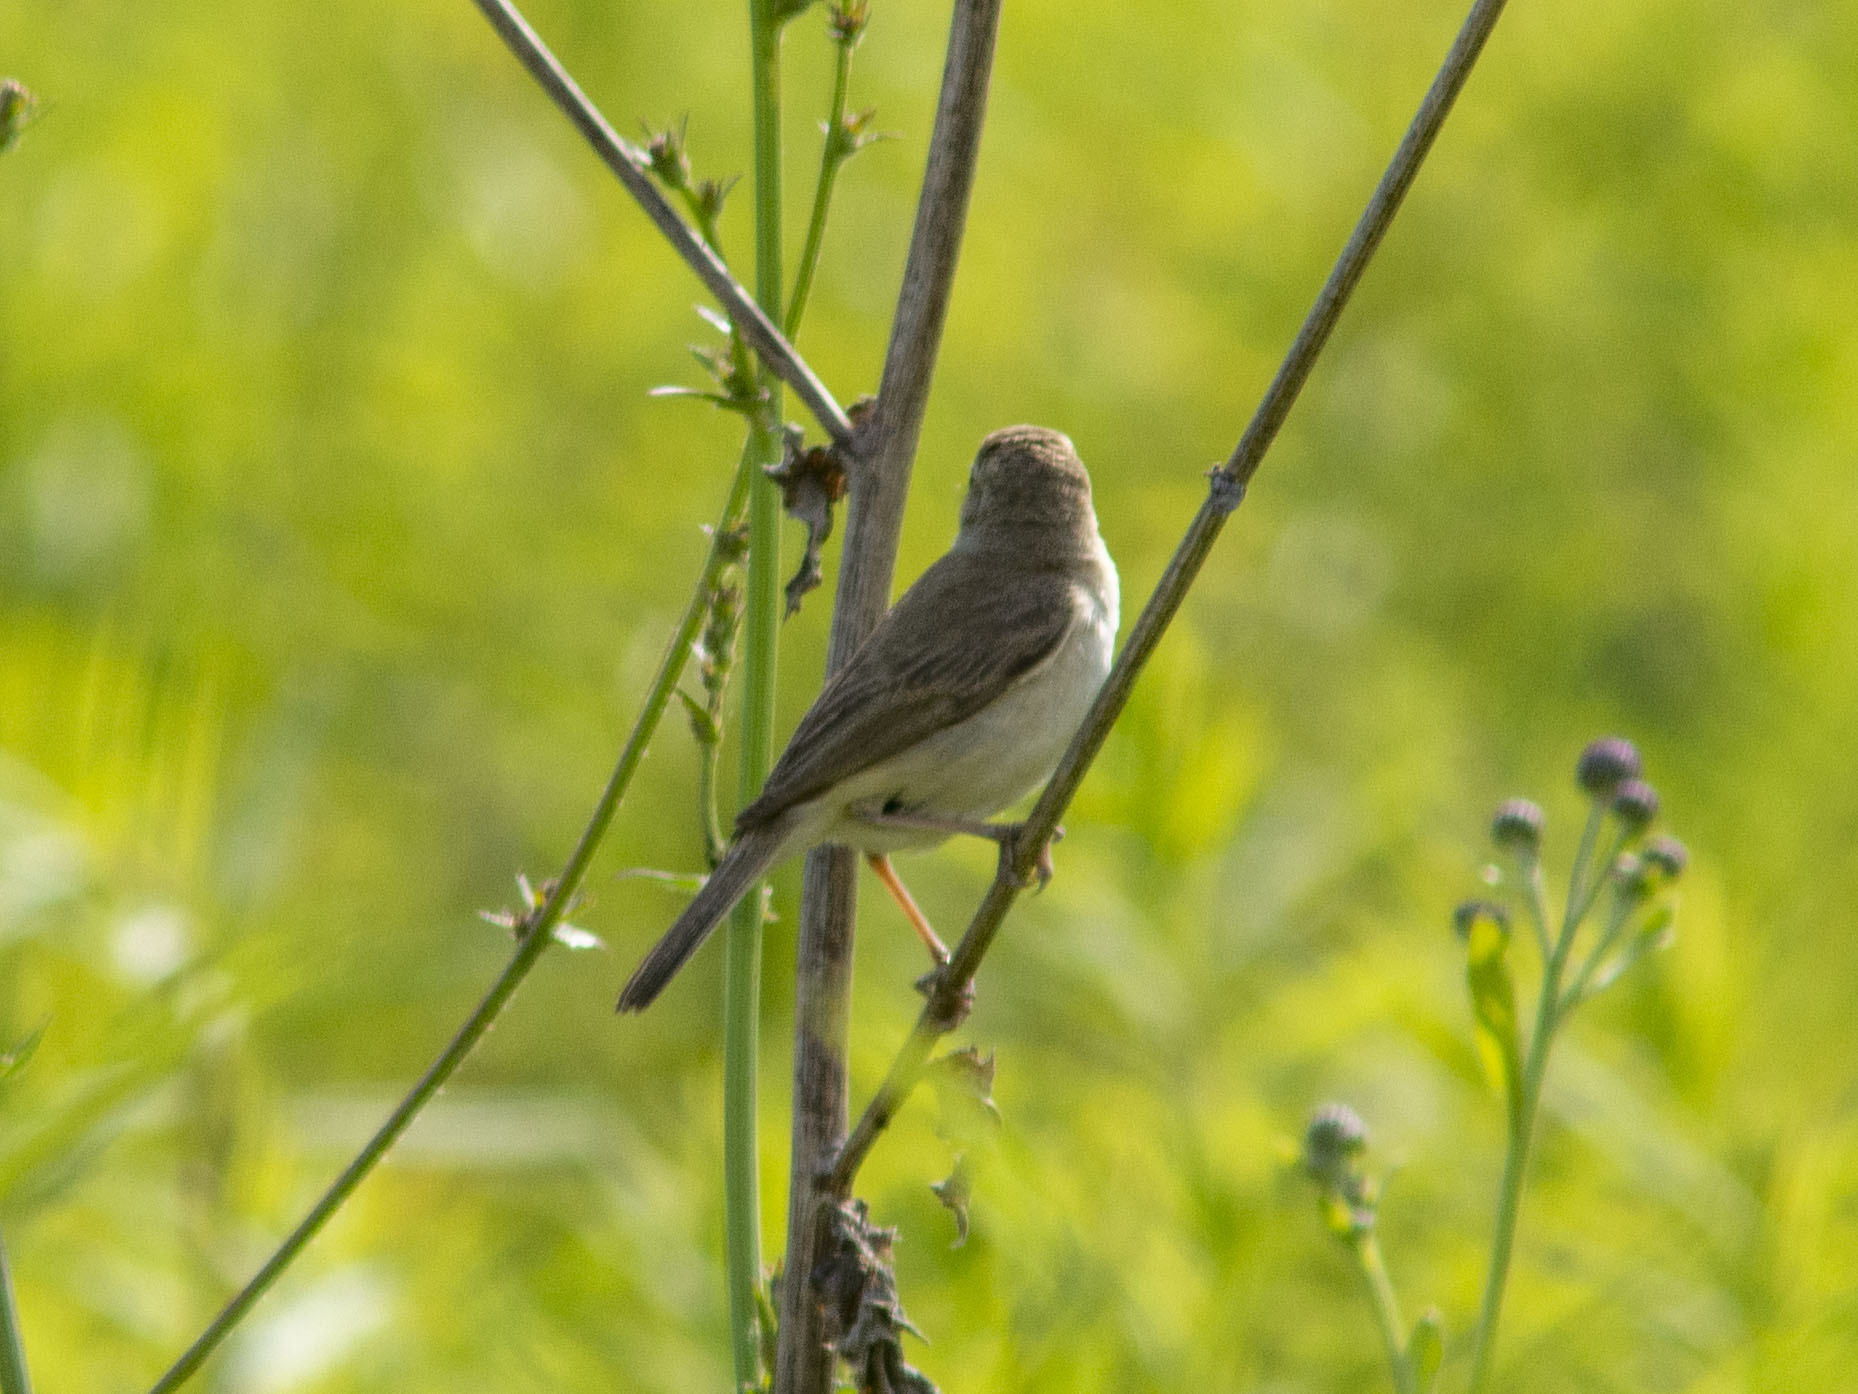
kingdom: Animalia
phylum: Chordata
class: Aves
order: Passeriformes
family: Acrocephalidae
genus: Iduna
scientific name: Iduna caligata
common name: Booted warbler
